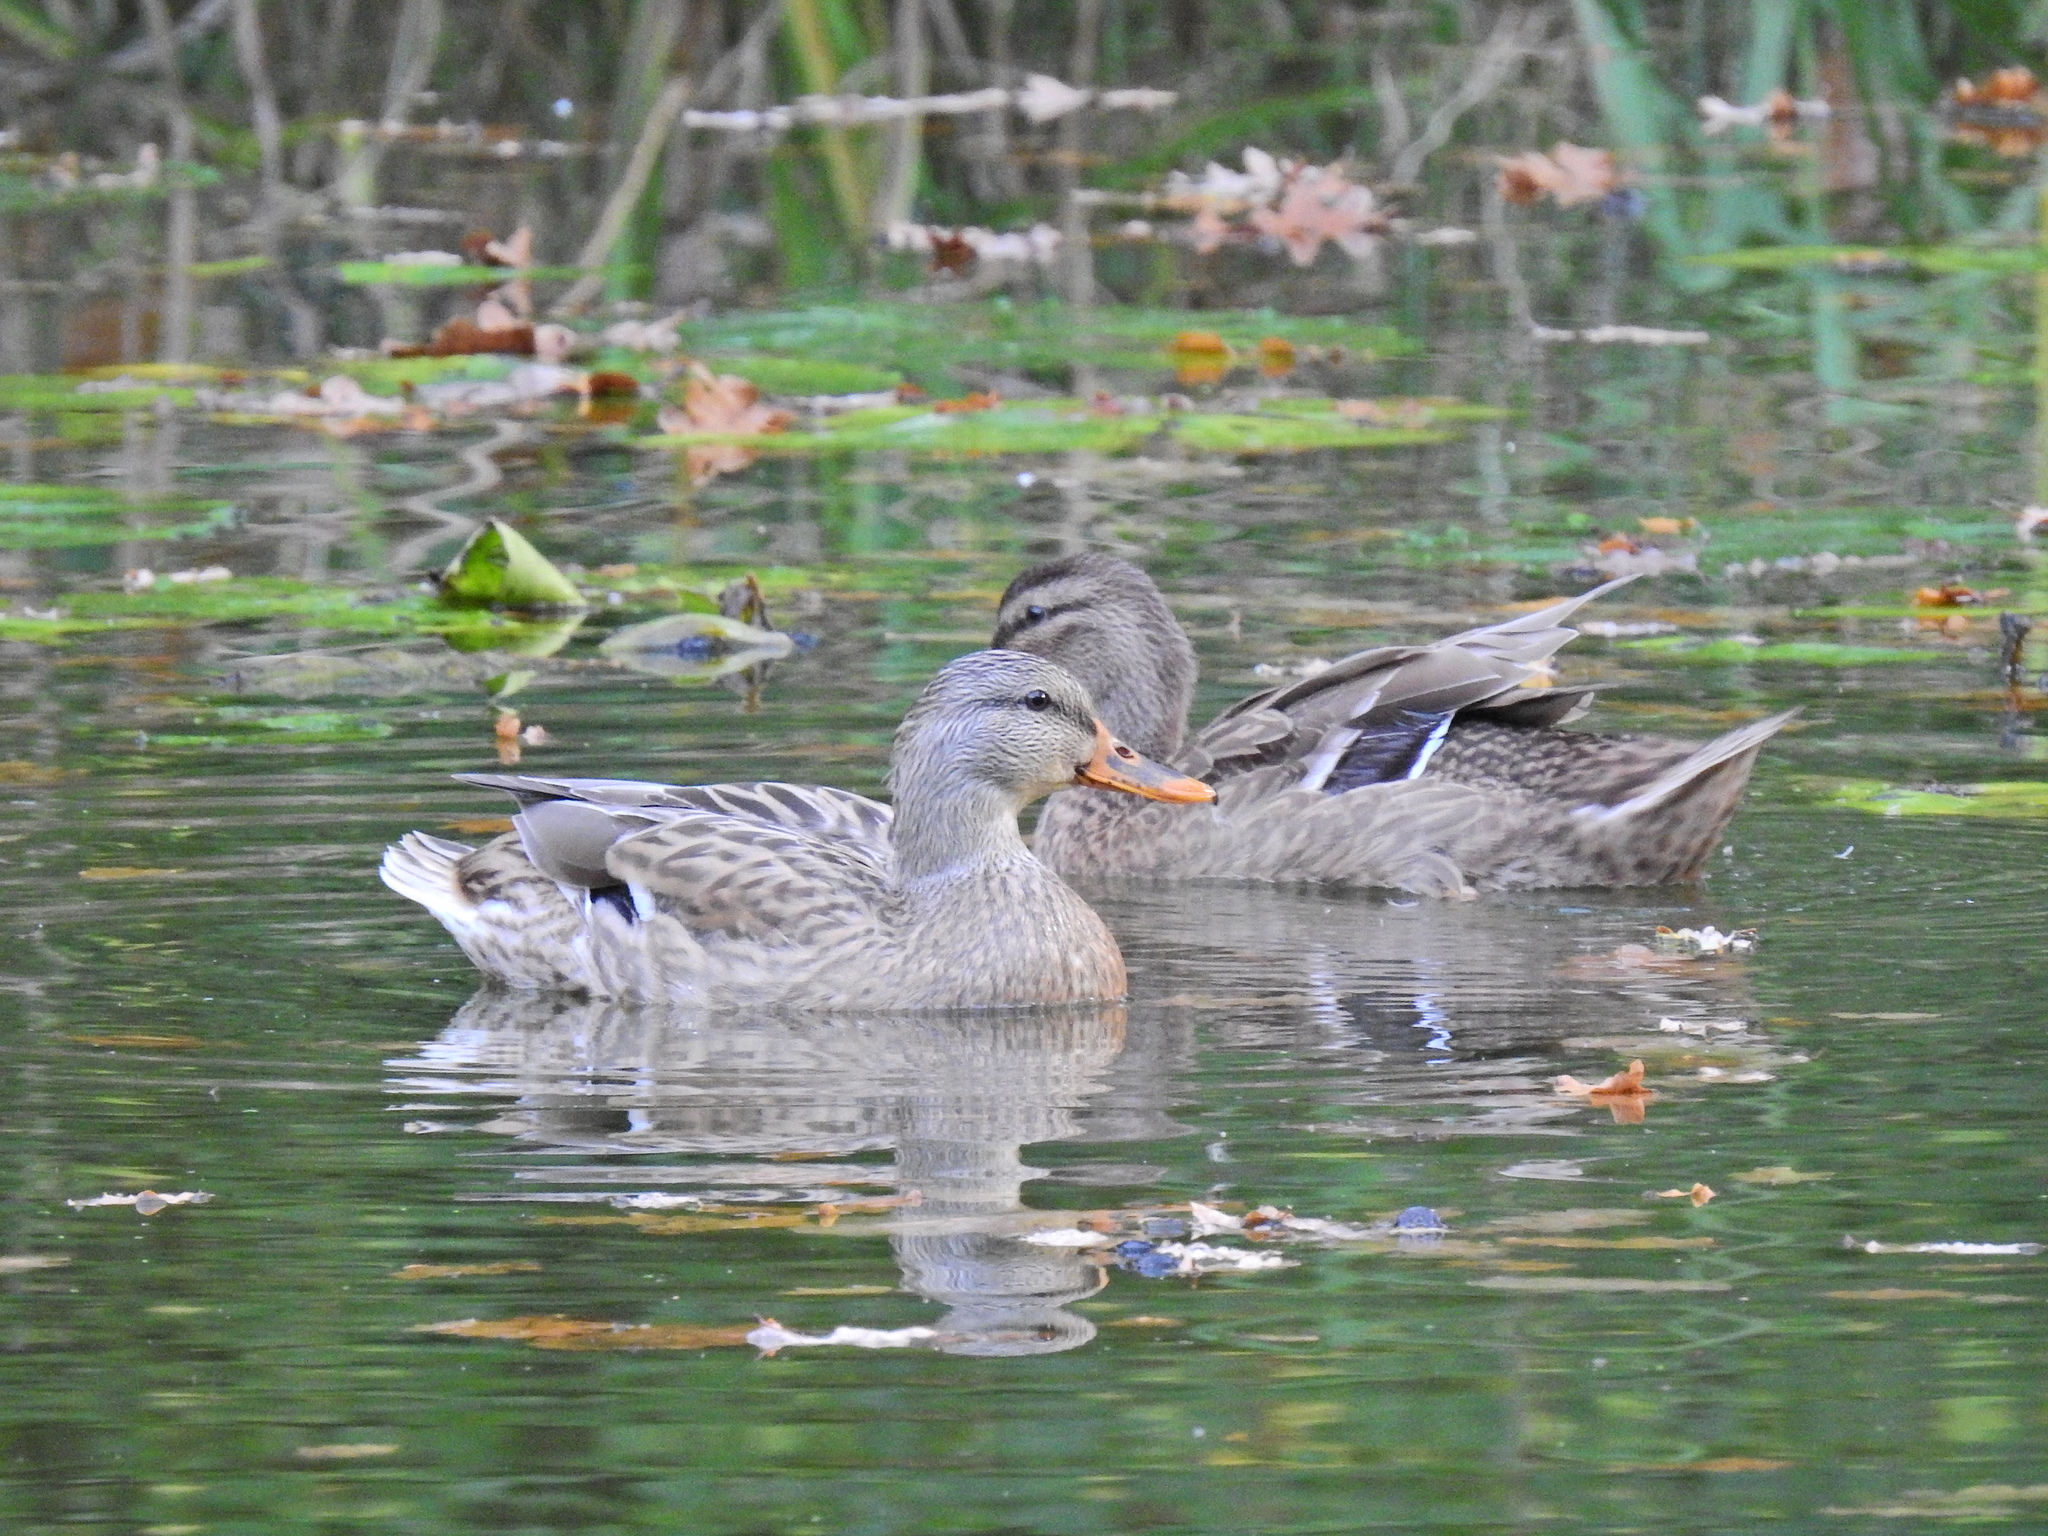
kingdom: Animalia
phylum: Chordata
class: Aves
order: Anseriformes
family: Anatidae
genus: Anas
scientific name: Anas platyrhynchos
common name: Mallard
